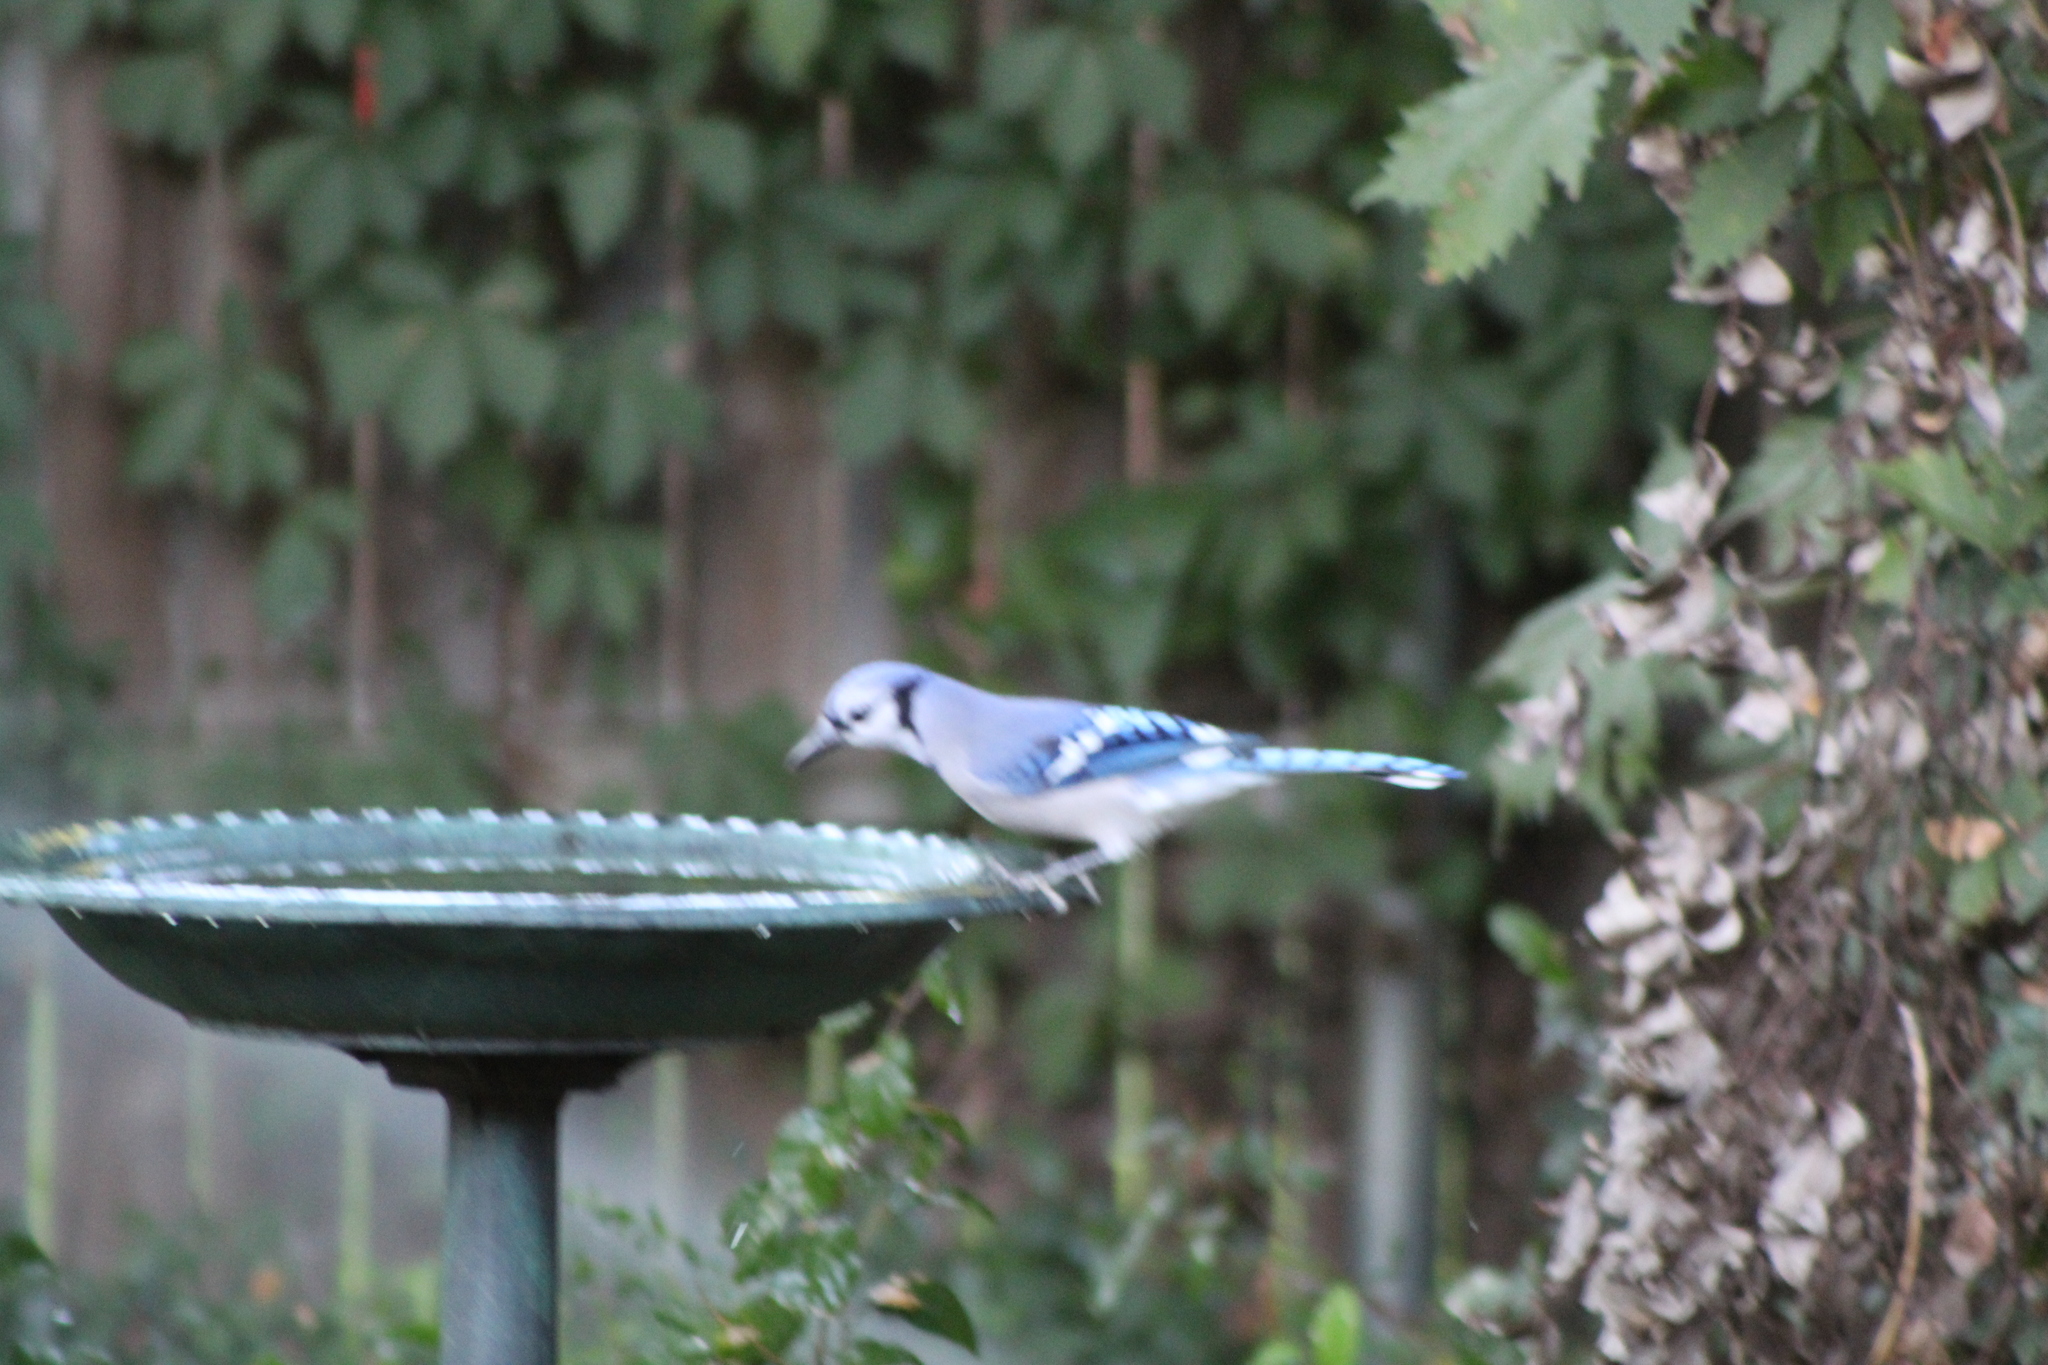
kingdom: Animalia
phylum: Chordata
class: Aves
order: Passeriformes
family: Corvidae
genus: Cyanocitta
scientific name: Cyanocitta cristata
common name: Blue jay
